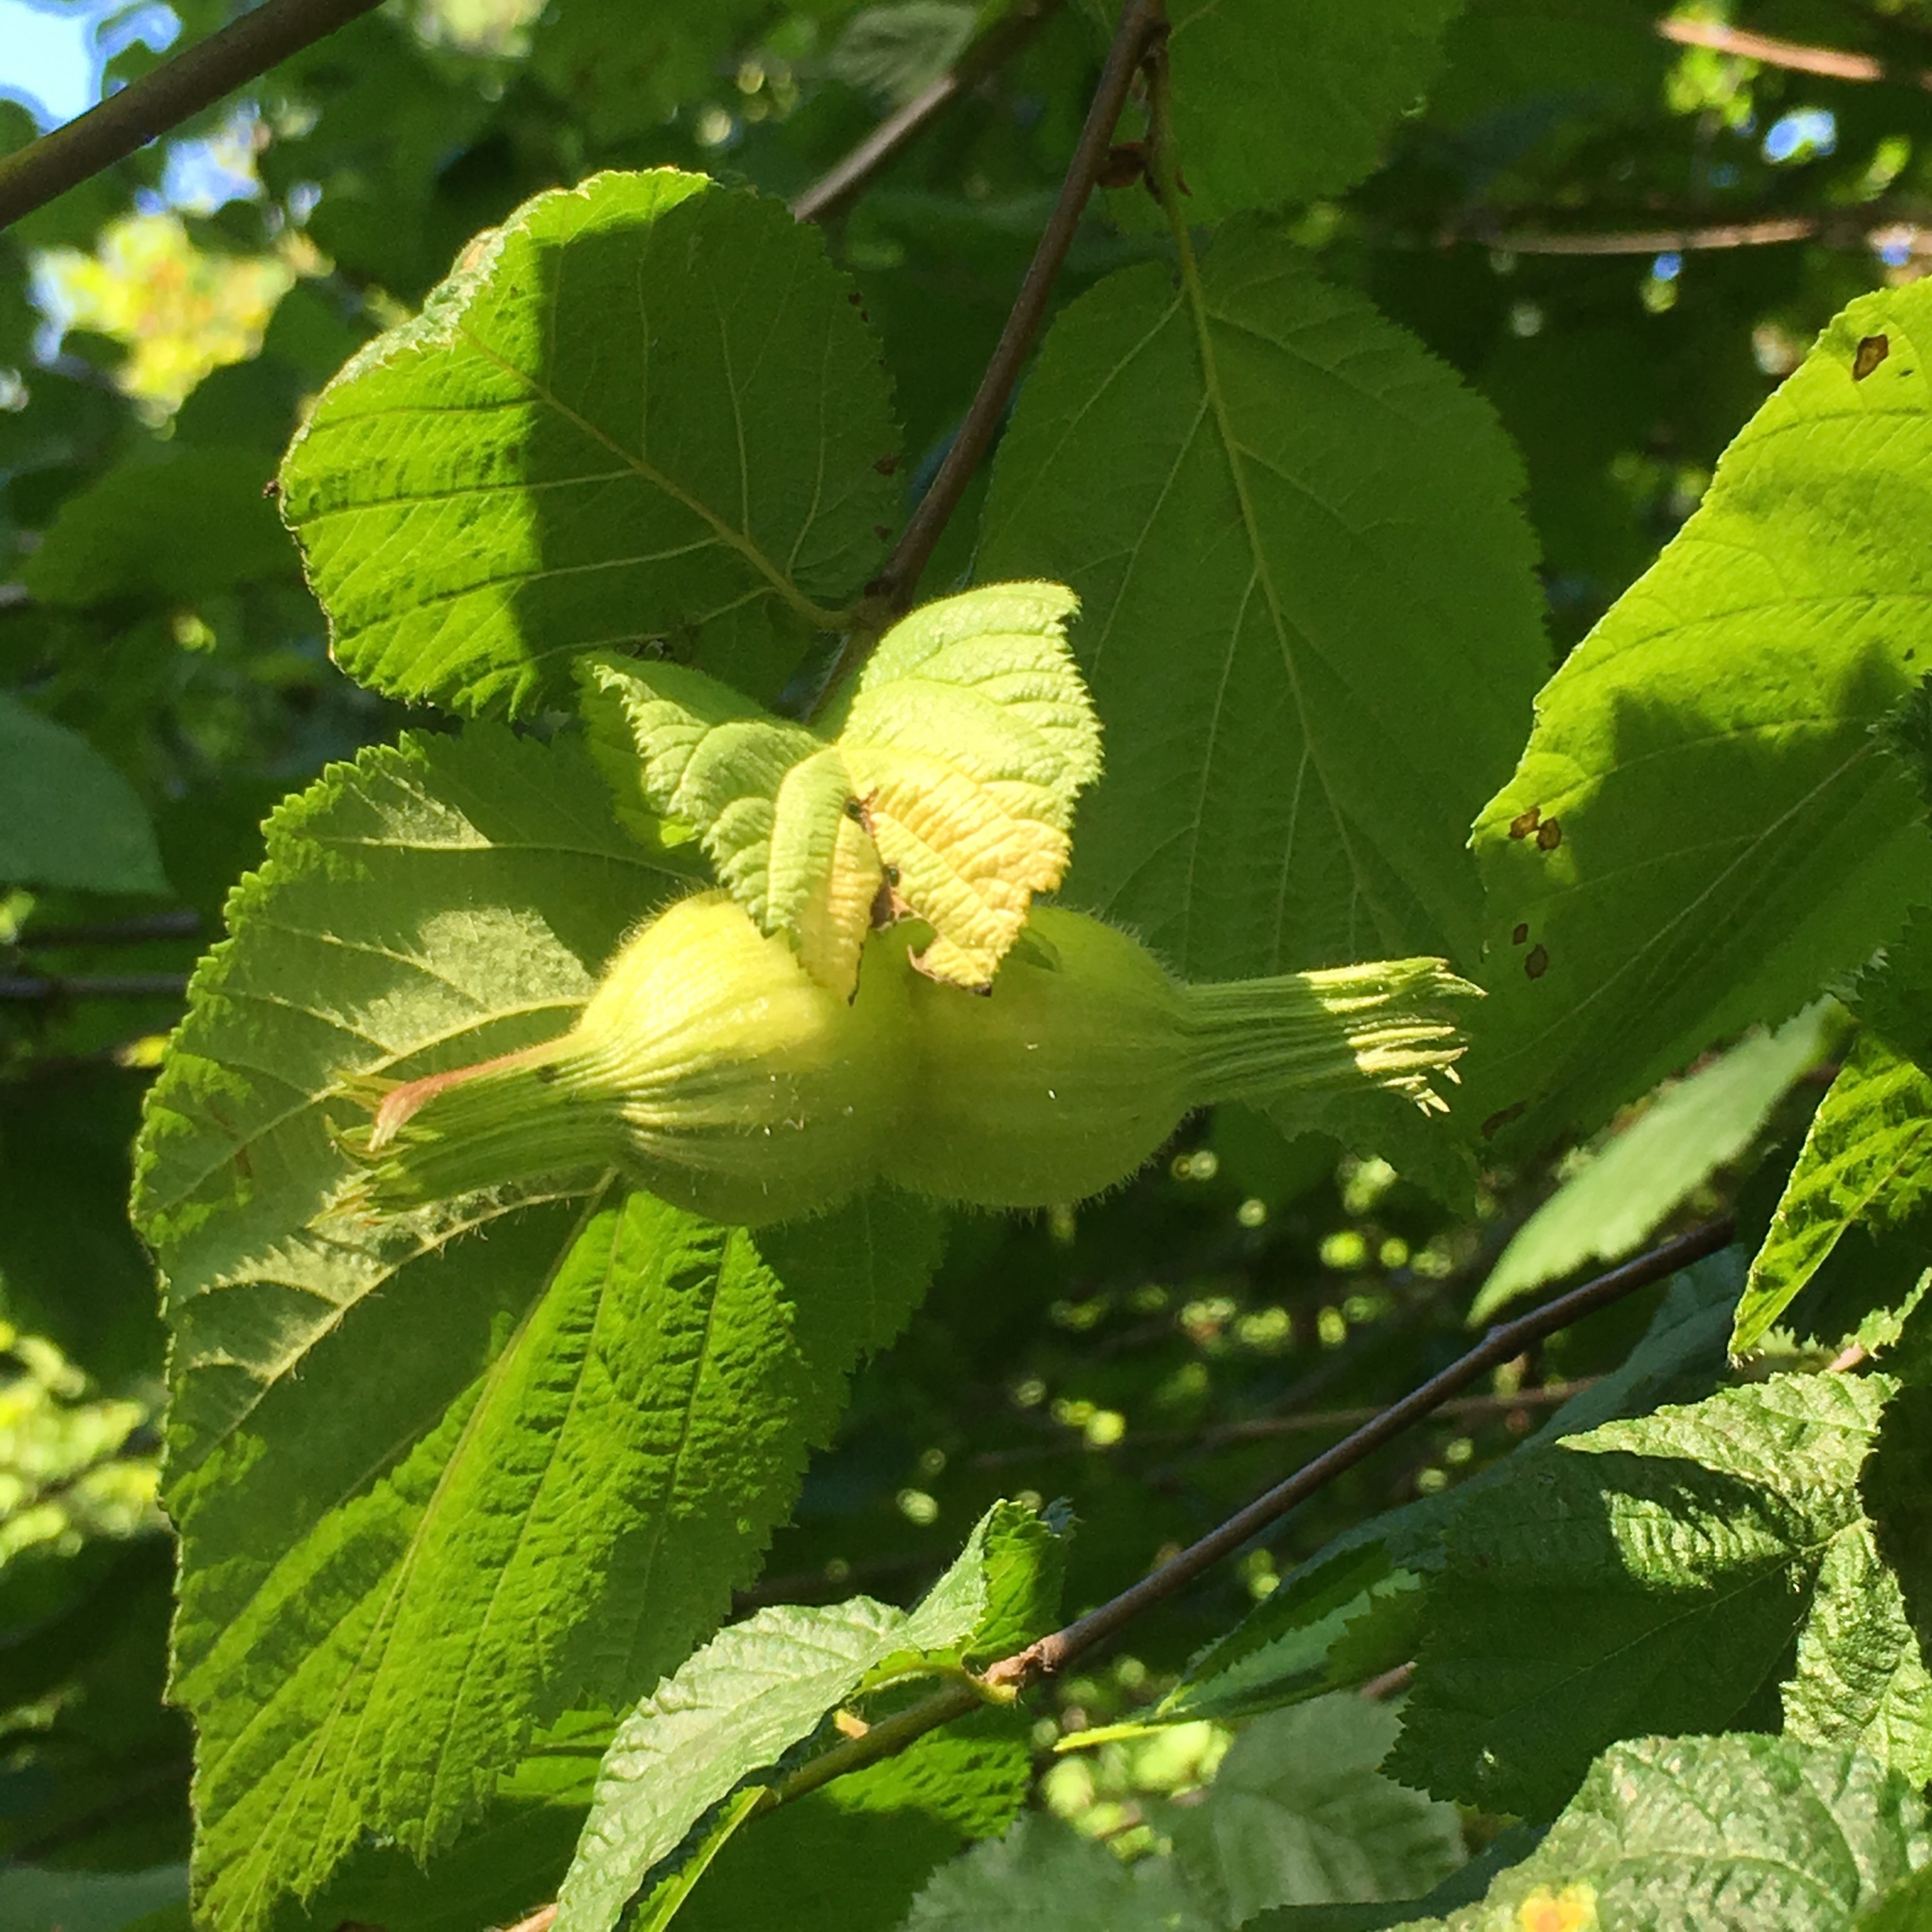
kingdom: Plantae
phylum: Tracheophyta
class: Magnoliopsida
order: Fagales
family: Betulaceae
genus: Corylus
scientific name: Corylus cornuta
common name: Beaked hazel
